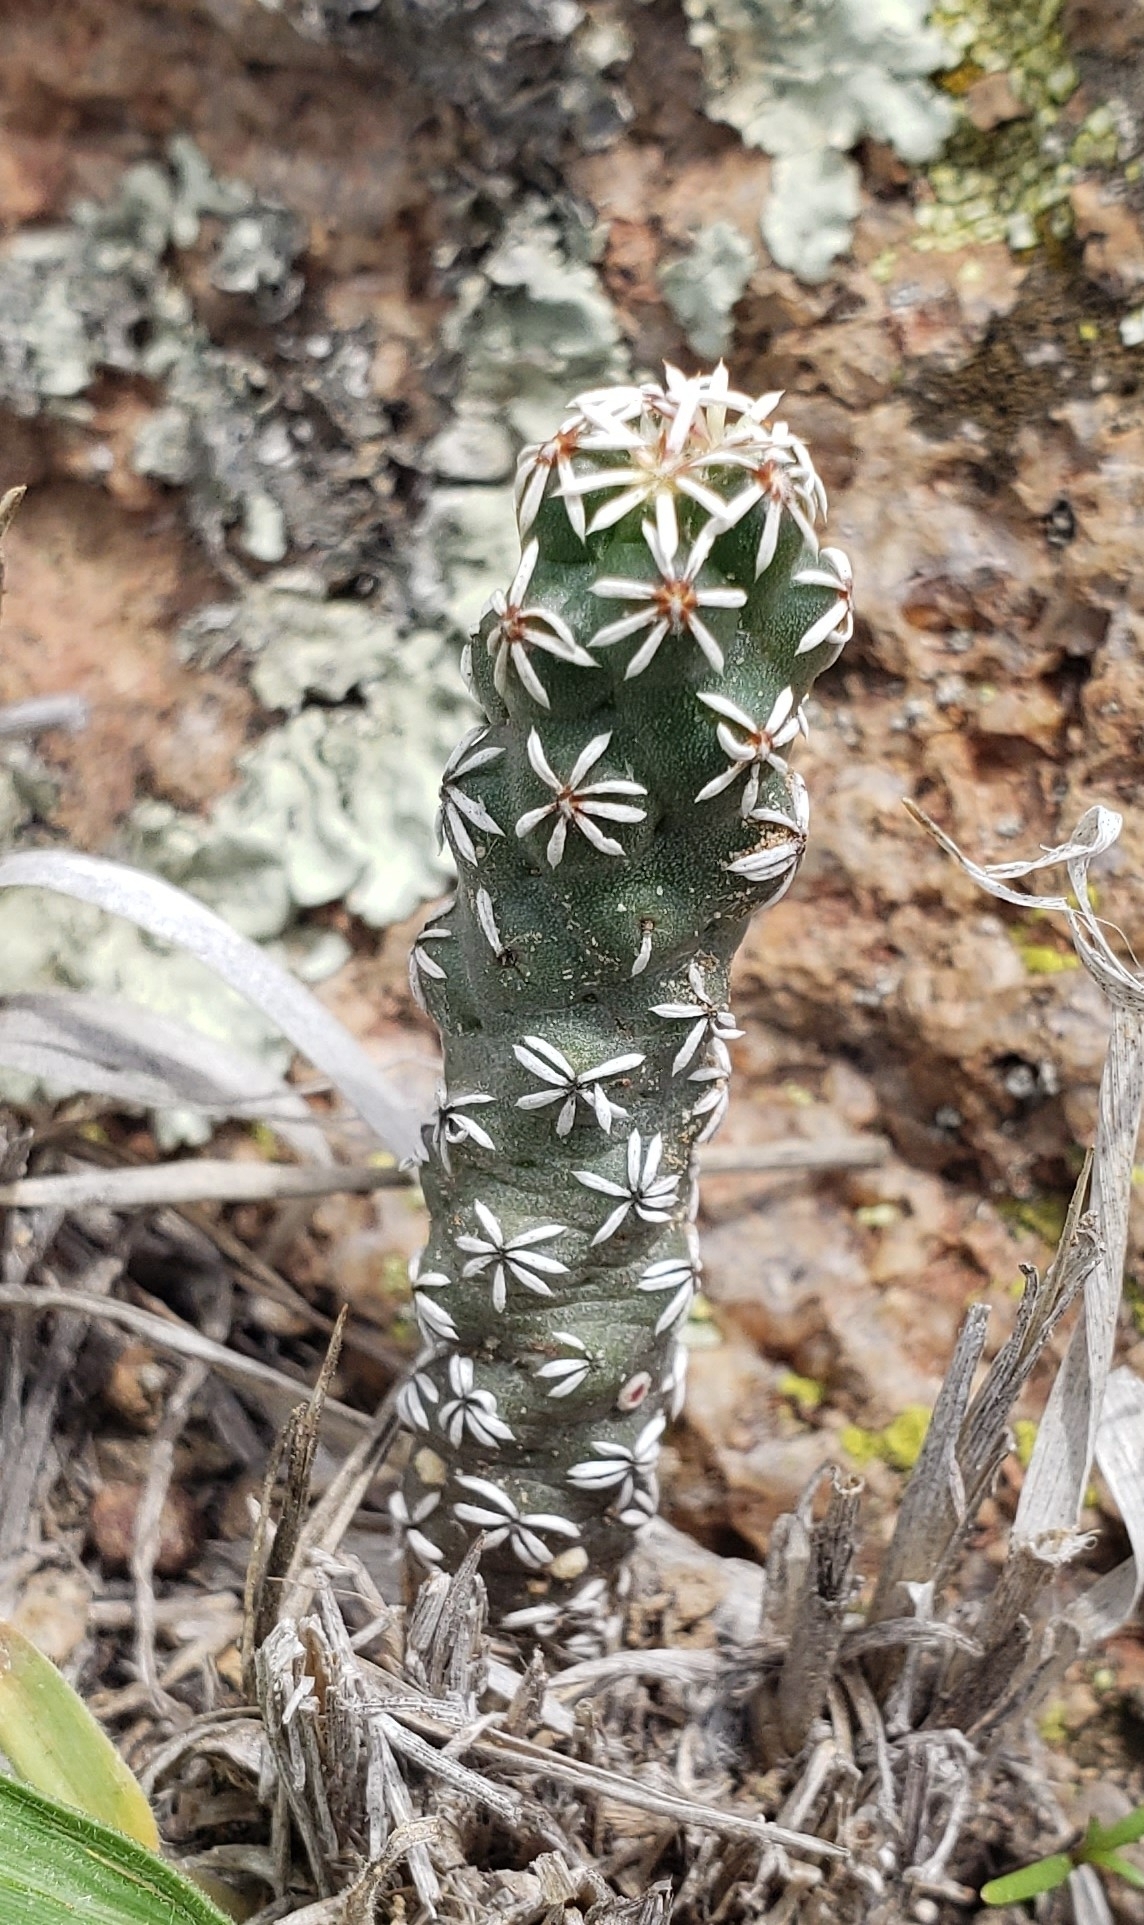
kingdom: Plantae
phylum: Tracheophyta
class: Magnoliopsida
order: Caryophyllales
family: Cactaceae
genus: Coryphantha
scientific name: Coryphantha clavata
